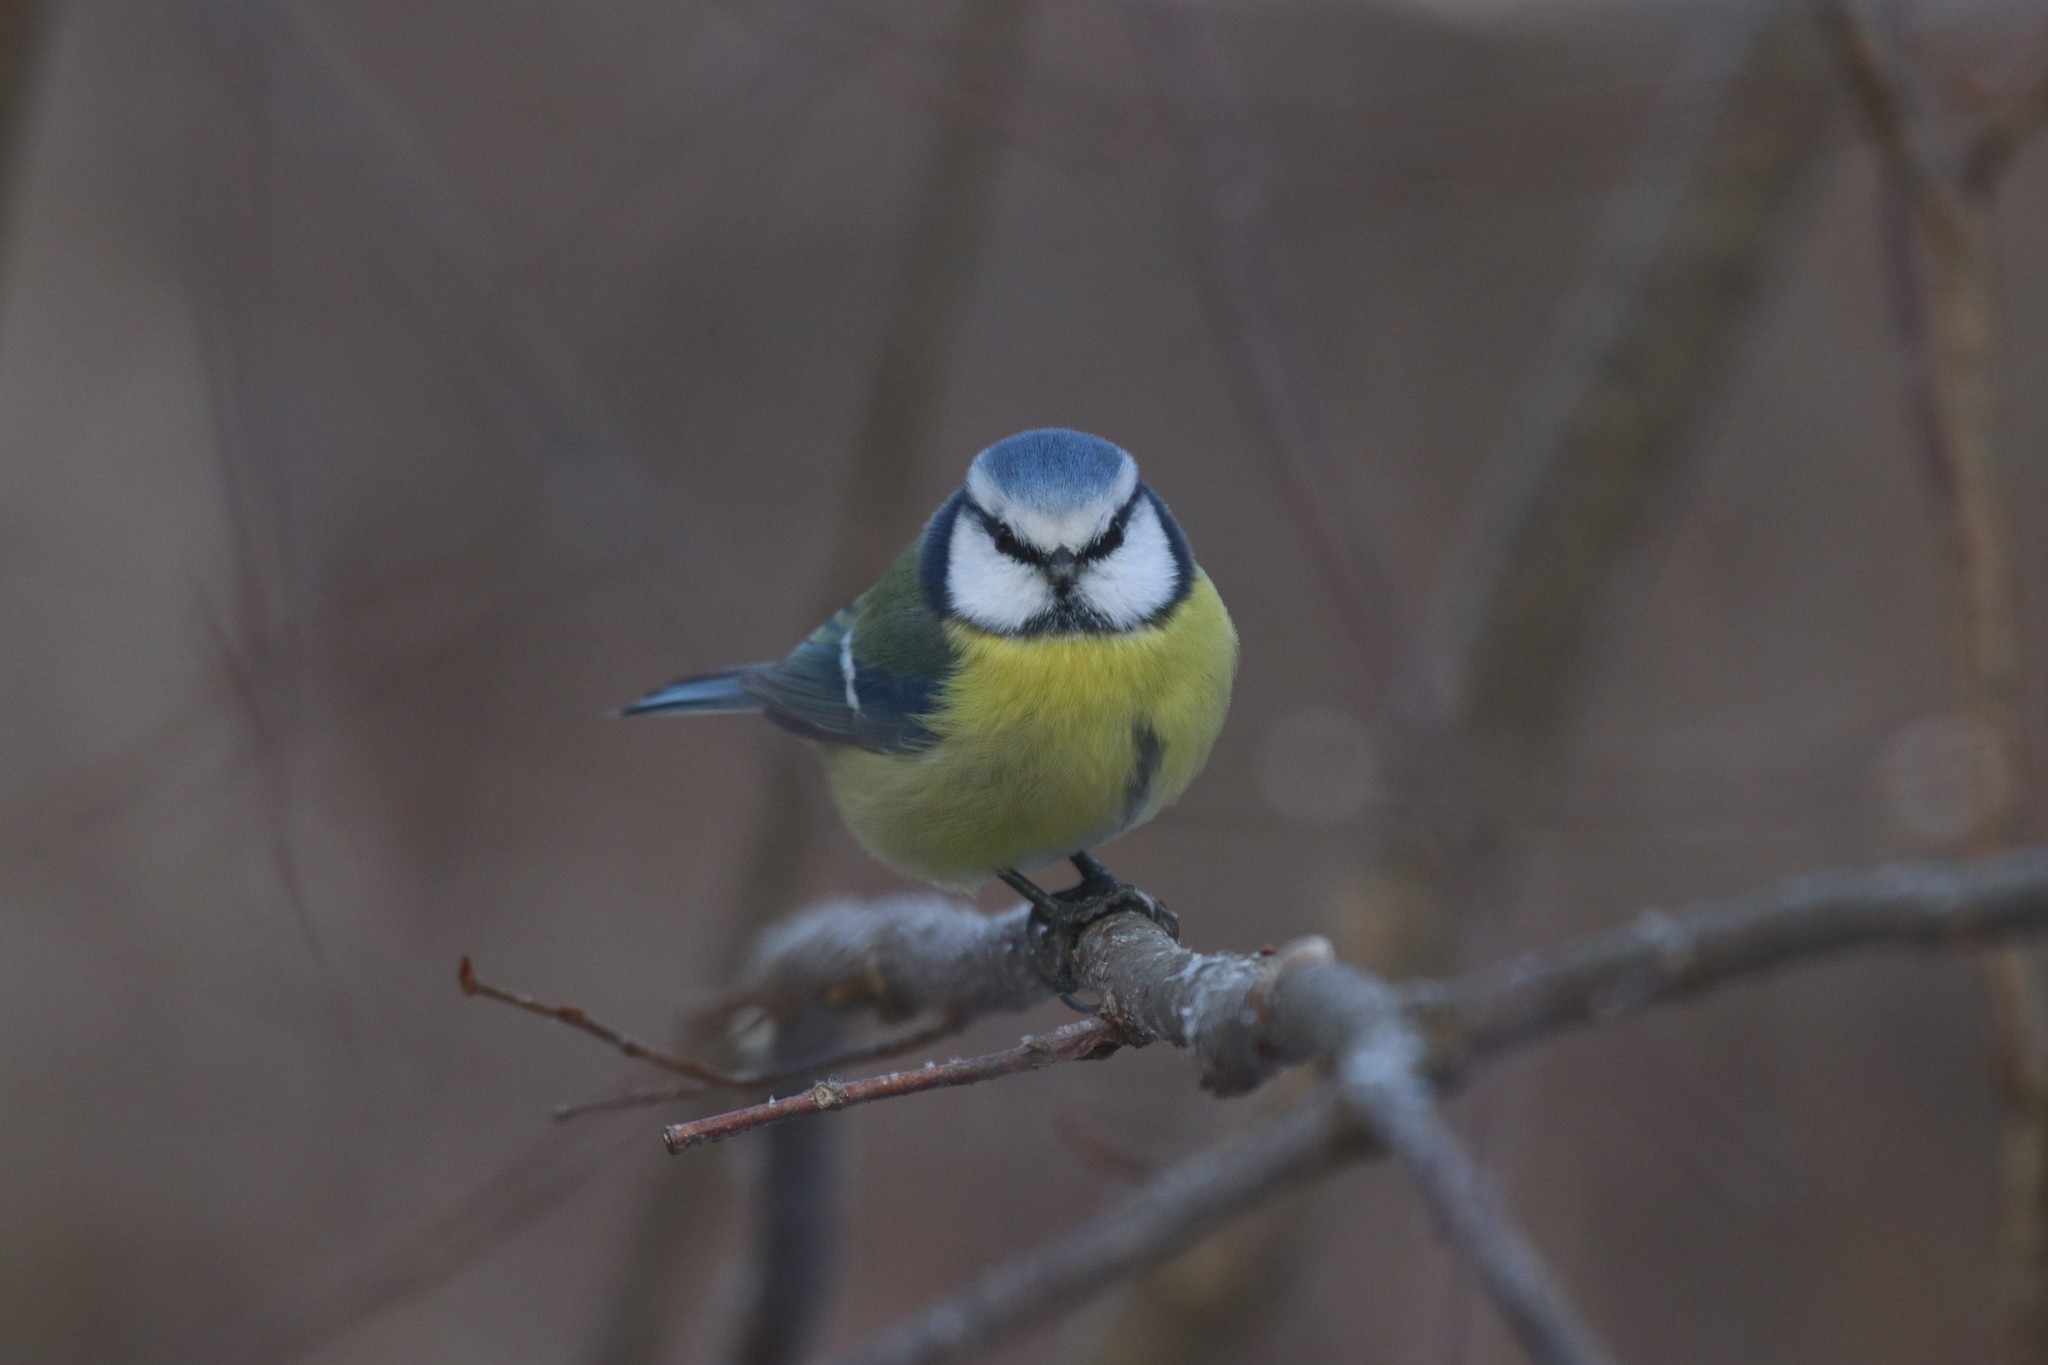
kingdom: Animalia
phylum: Chordata
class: Aves
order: Passeriformes
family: Paridae
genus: Cyanistes
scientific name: Cyanistes caeruleus
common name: Eurasian blue tit
